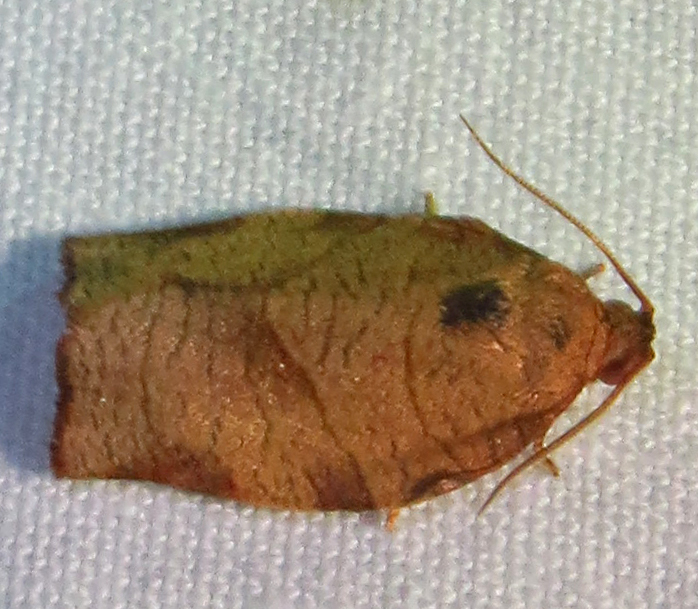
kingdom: Animalia
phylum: Arthropoda
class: Insecta
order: Lepidoptera
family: Tortricidae
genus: Choristoneura
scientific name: Choristoneura rosaceana
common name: Oblique-banded leafroller moth
